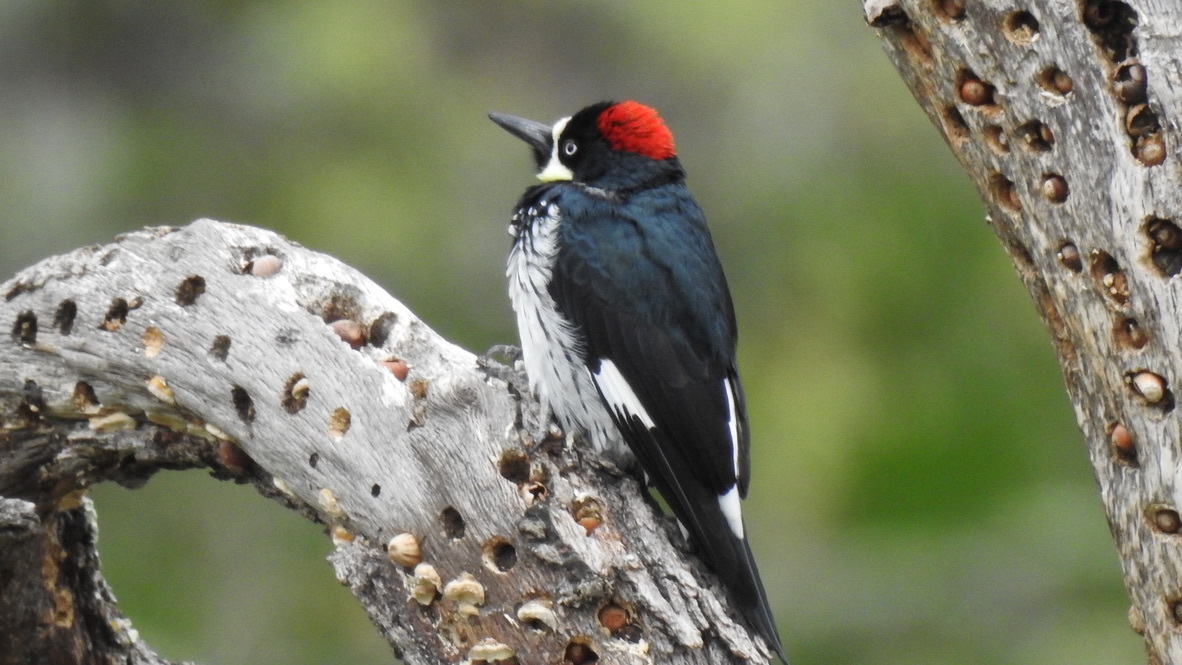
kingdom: Animalia
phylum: Chordata
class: Aves
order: Piciformes
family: Picidae
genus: Melanerpes
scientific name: Melanerpes formicivorus
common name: Acorn woodpecker
